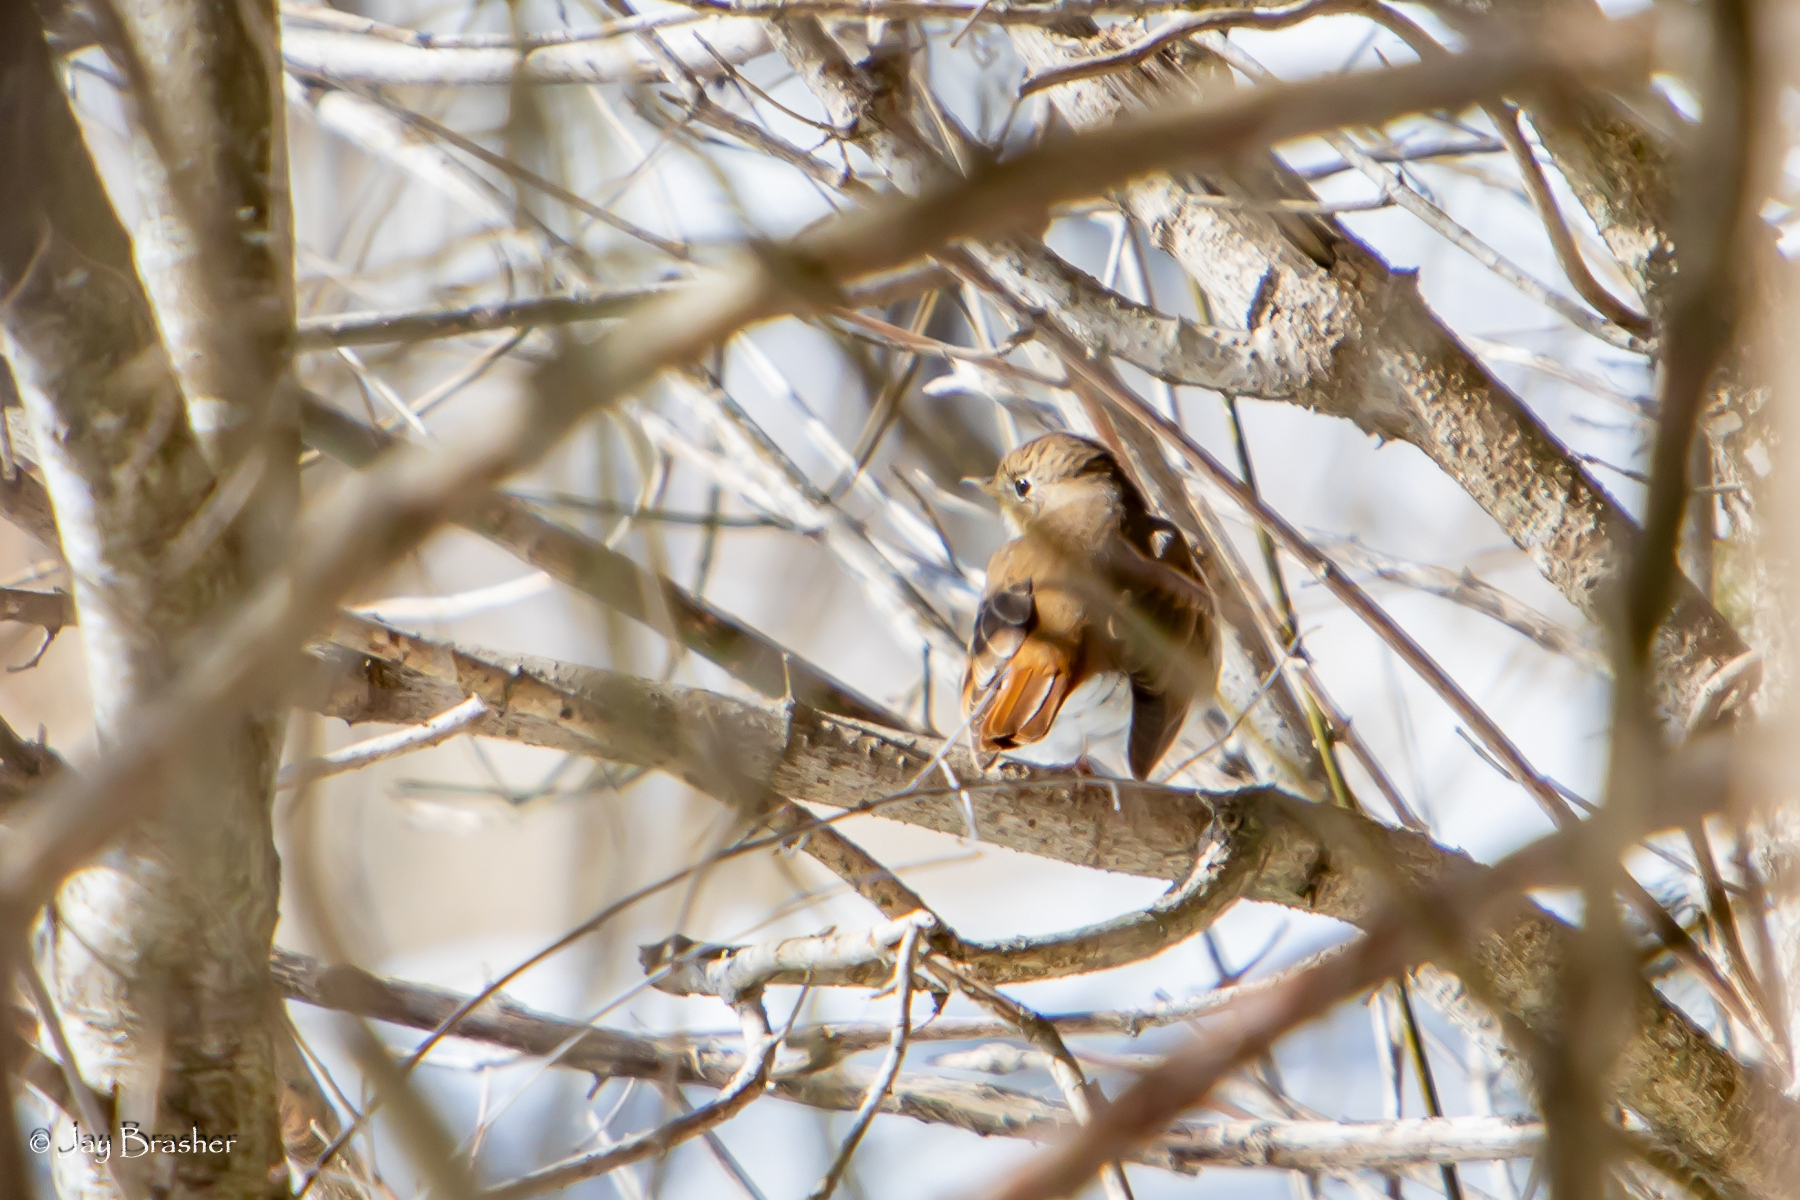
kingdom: Animalia
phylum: Chordata
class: Aves
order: Passeriformes
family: Turdidae
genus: Catharus
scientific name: Catharus guttatus
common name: Hermit thrush
